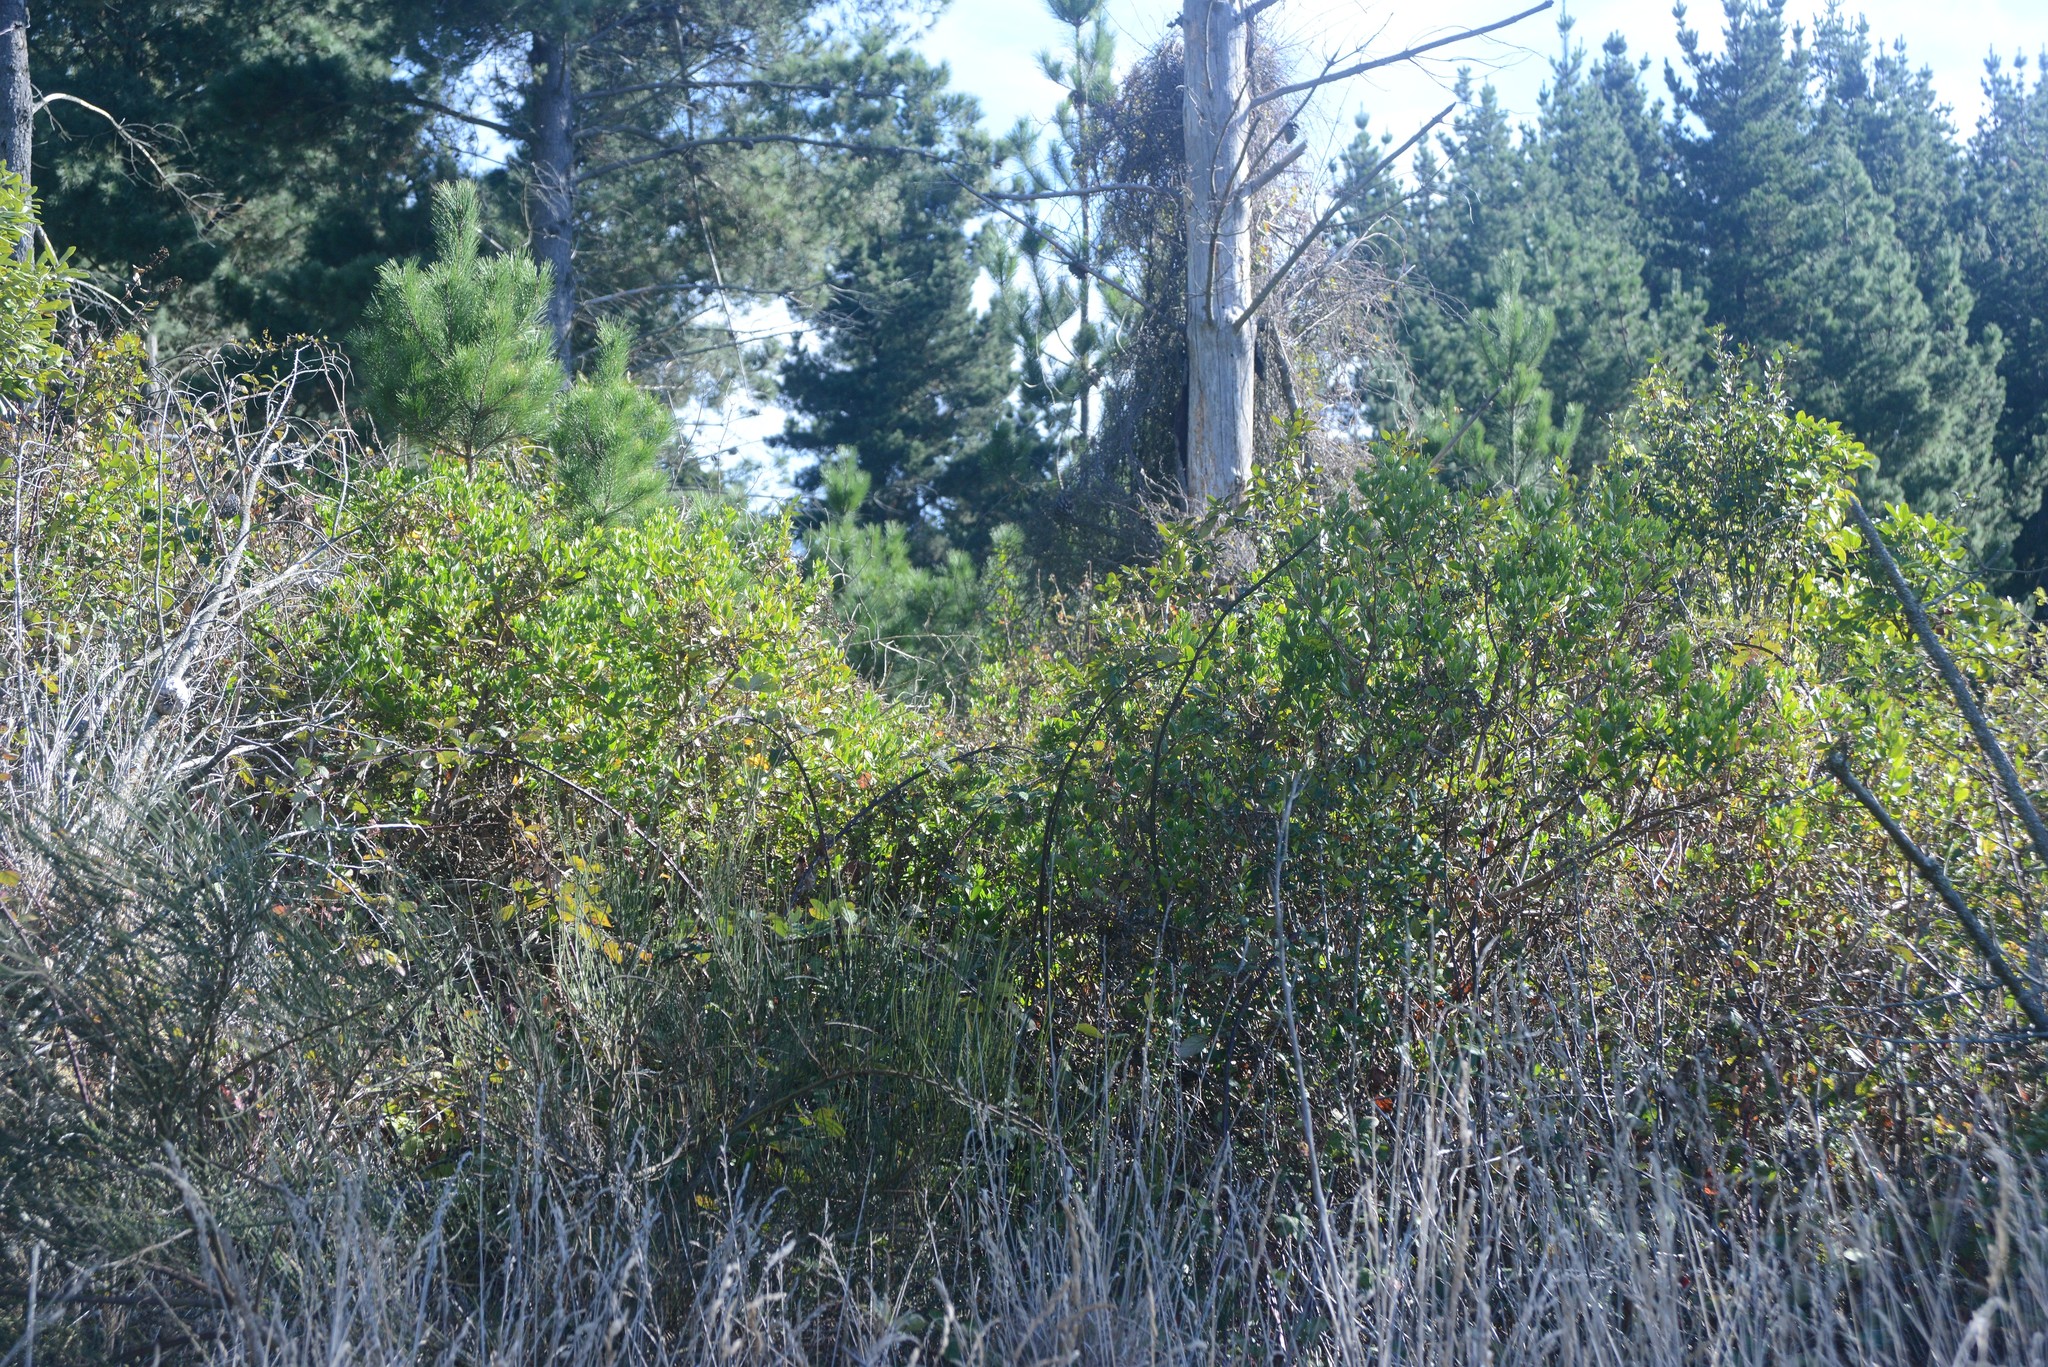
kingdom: Plantae
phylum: Tracheophyta
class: Magnoliopsida
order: Asterales
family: Asteraceae
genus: Osteospermum
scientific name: Osteospermum moniliferum
